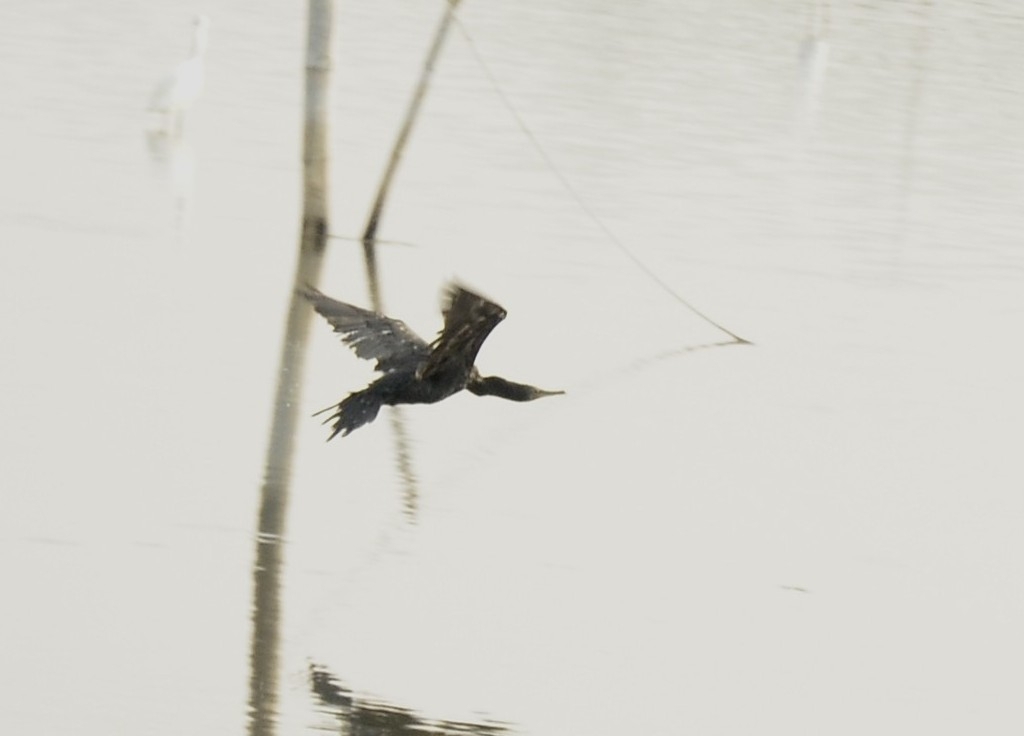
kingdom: Animalia
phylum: Chordata
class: Aves
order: Suliformes
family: Phalacrocoracidae
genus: Microcarbo
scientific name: Microcarbo niger
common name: Little cormorant
